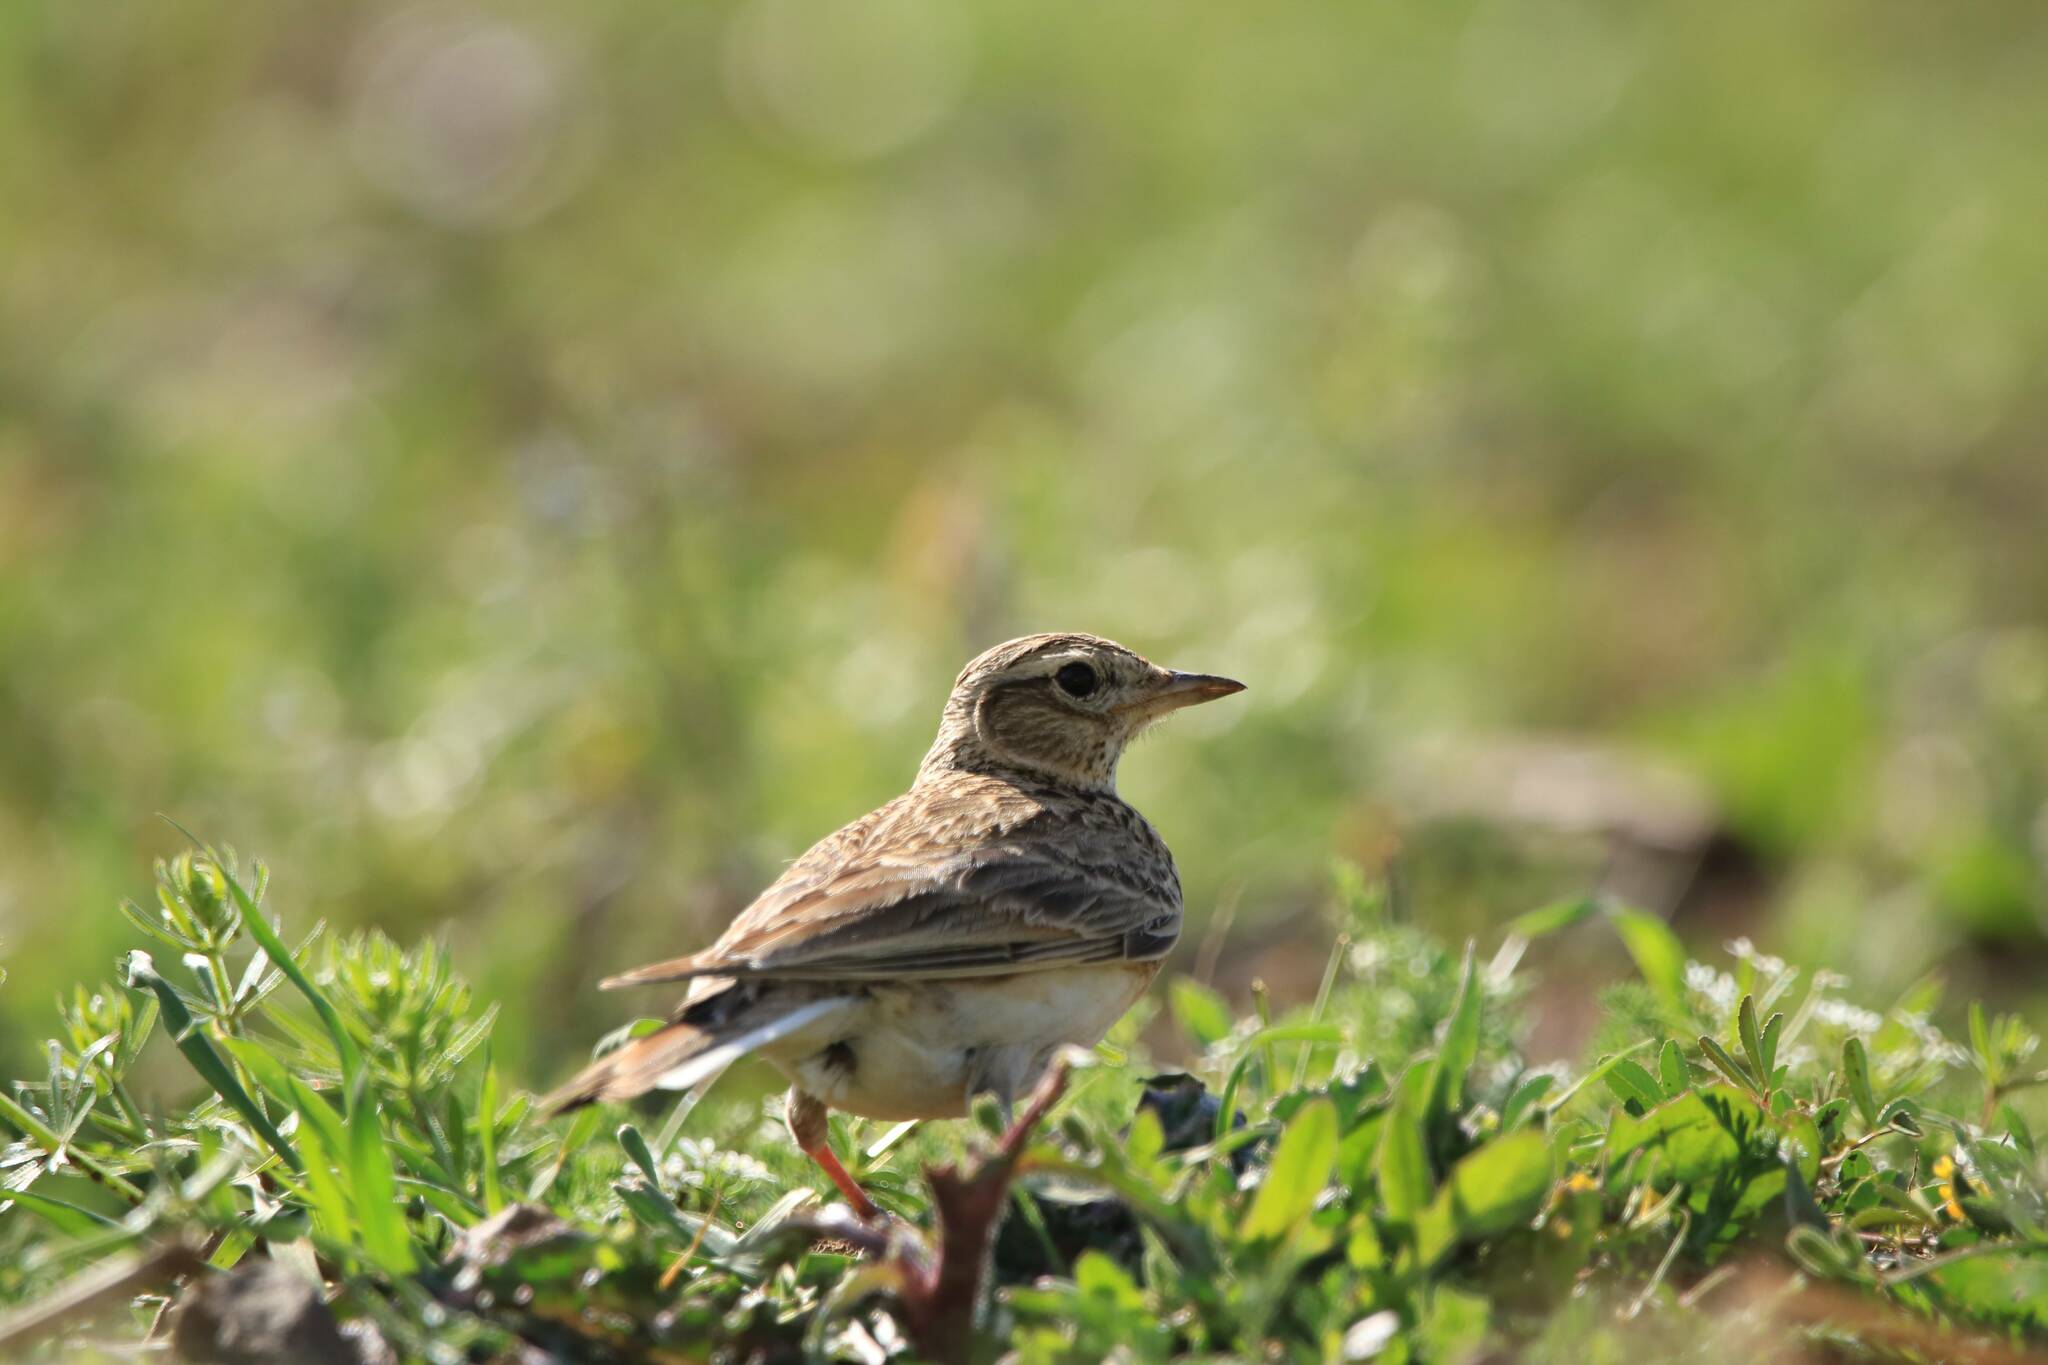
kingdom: Animalia
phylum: Chordata
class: Aves
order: Passeriformes
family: Alaudidae
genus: Alauda
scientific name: Alauda arvensis
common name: Eurasian skylark
